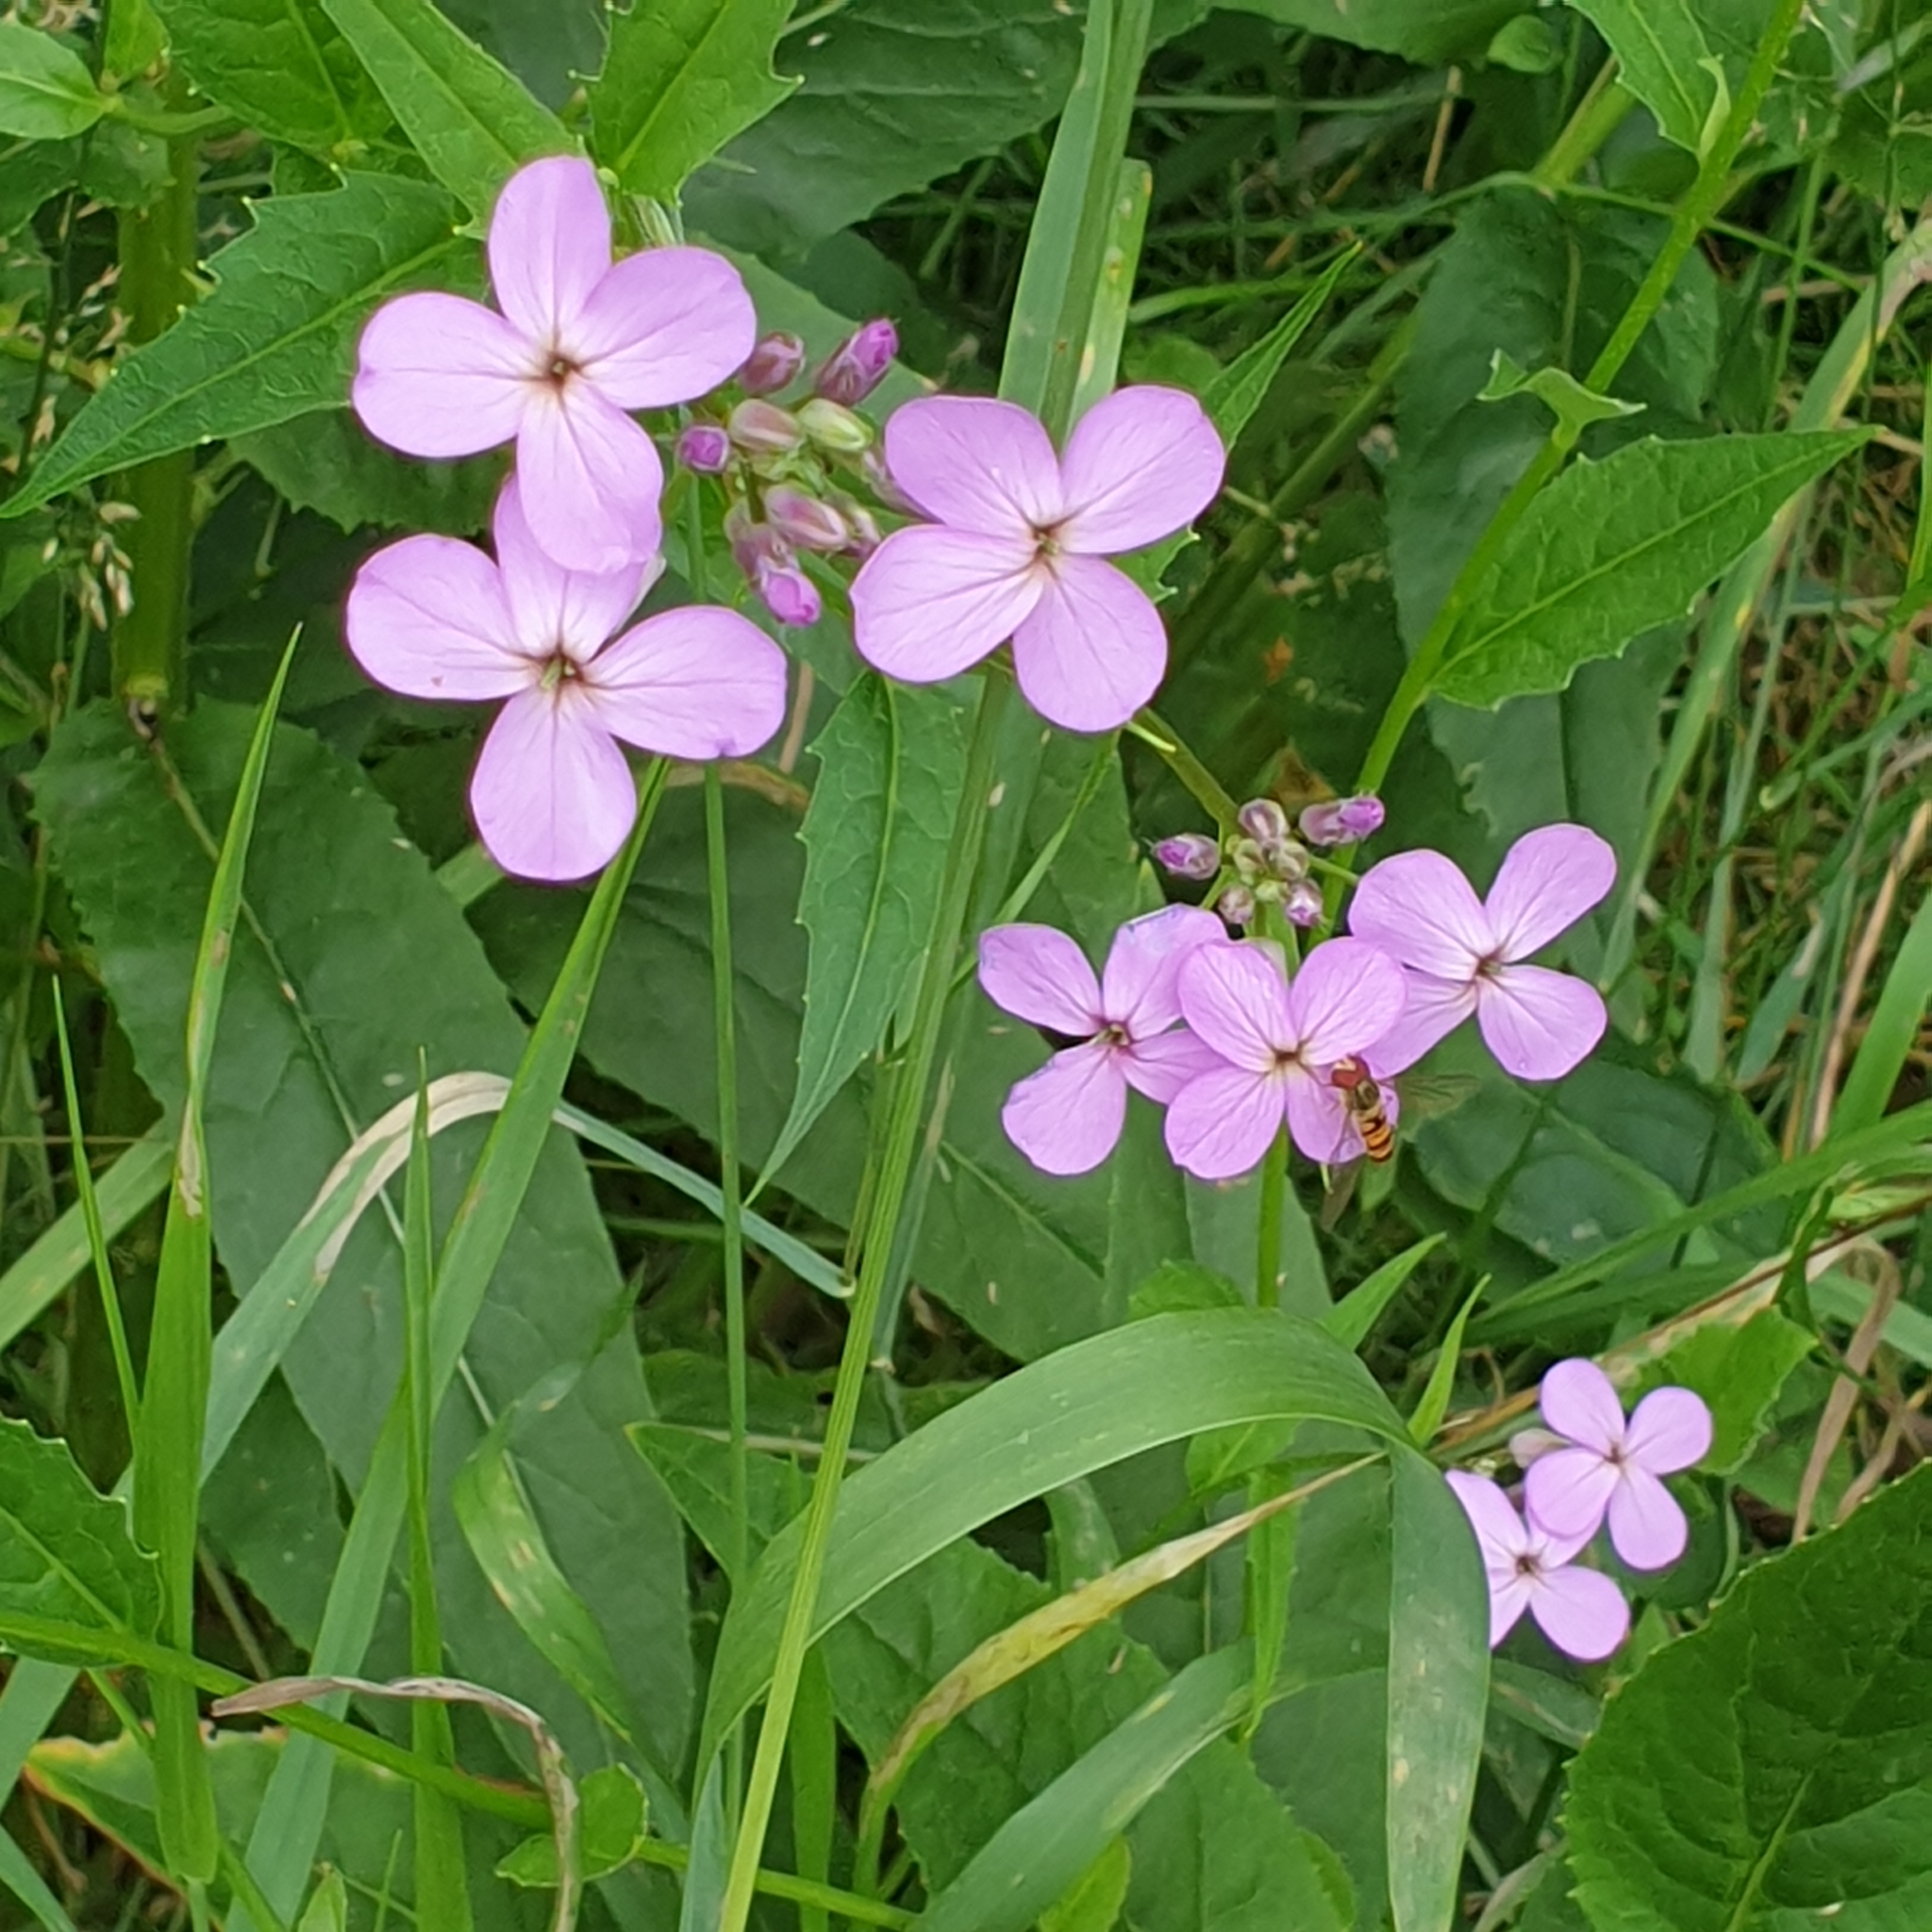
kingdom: Plantae
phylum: Tracheophyta
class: Magnoliopsida
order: Brassicales
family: Brassicaceae
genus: Hesperis
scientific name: Hesperis matronalis
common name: Dame's-violet
